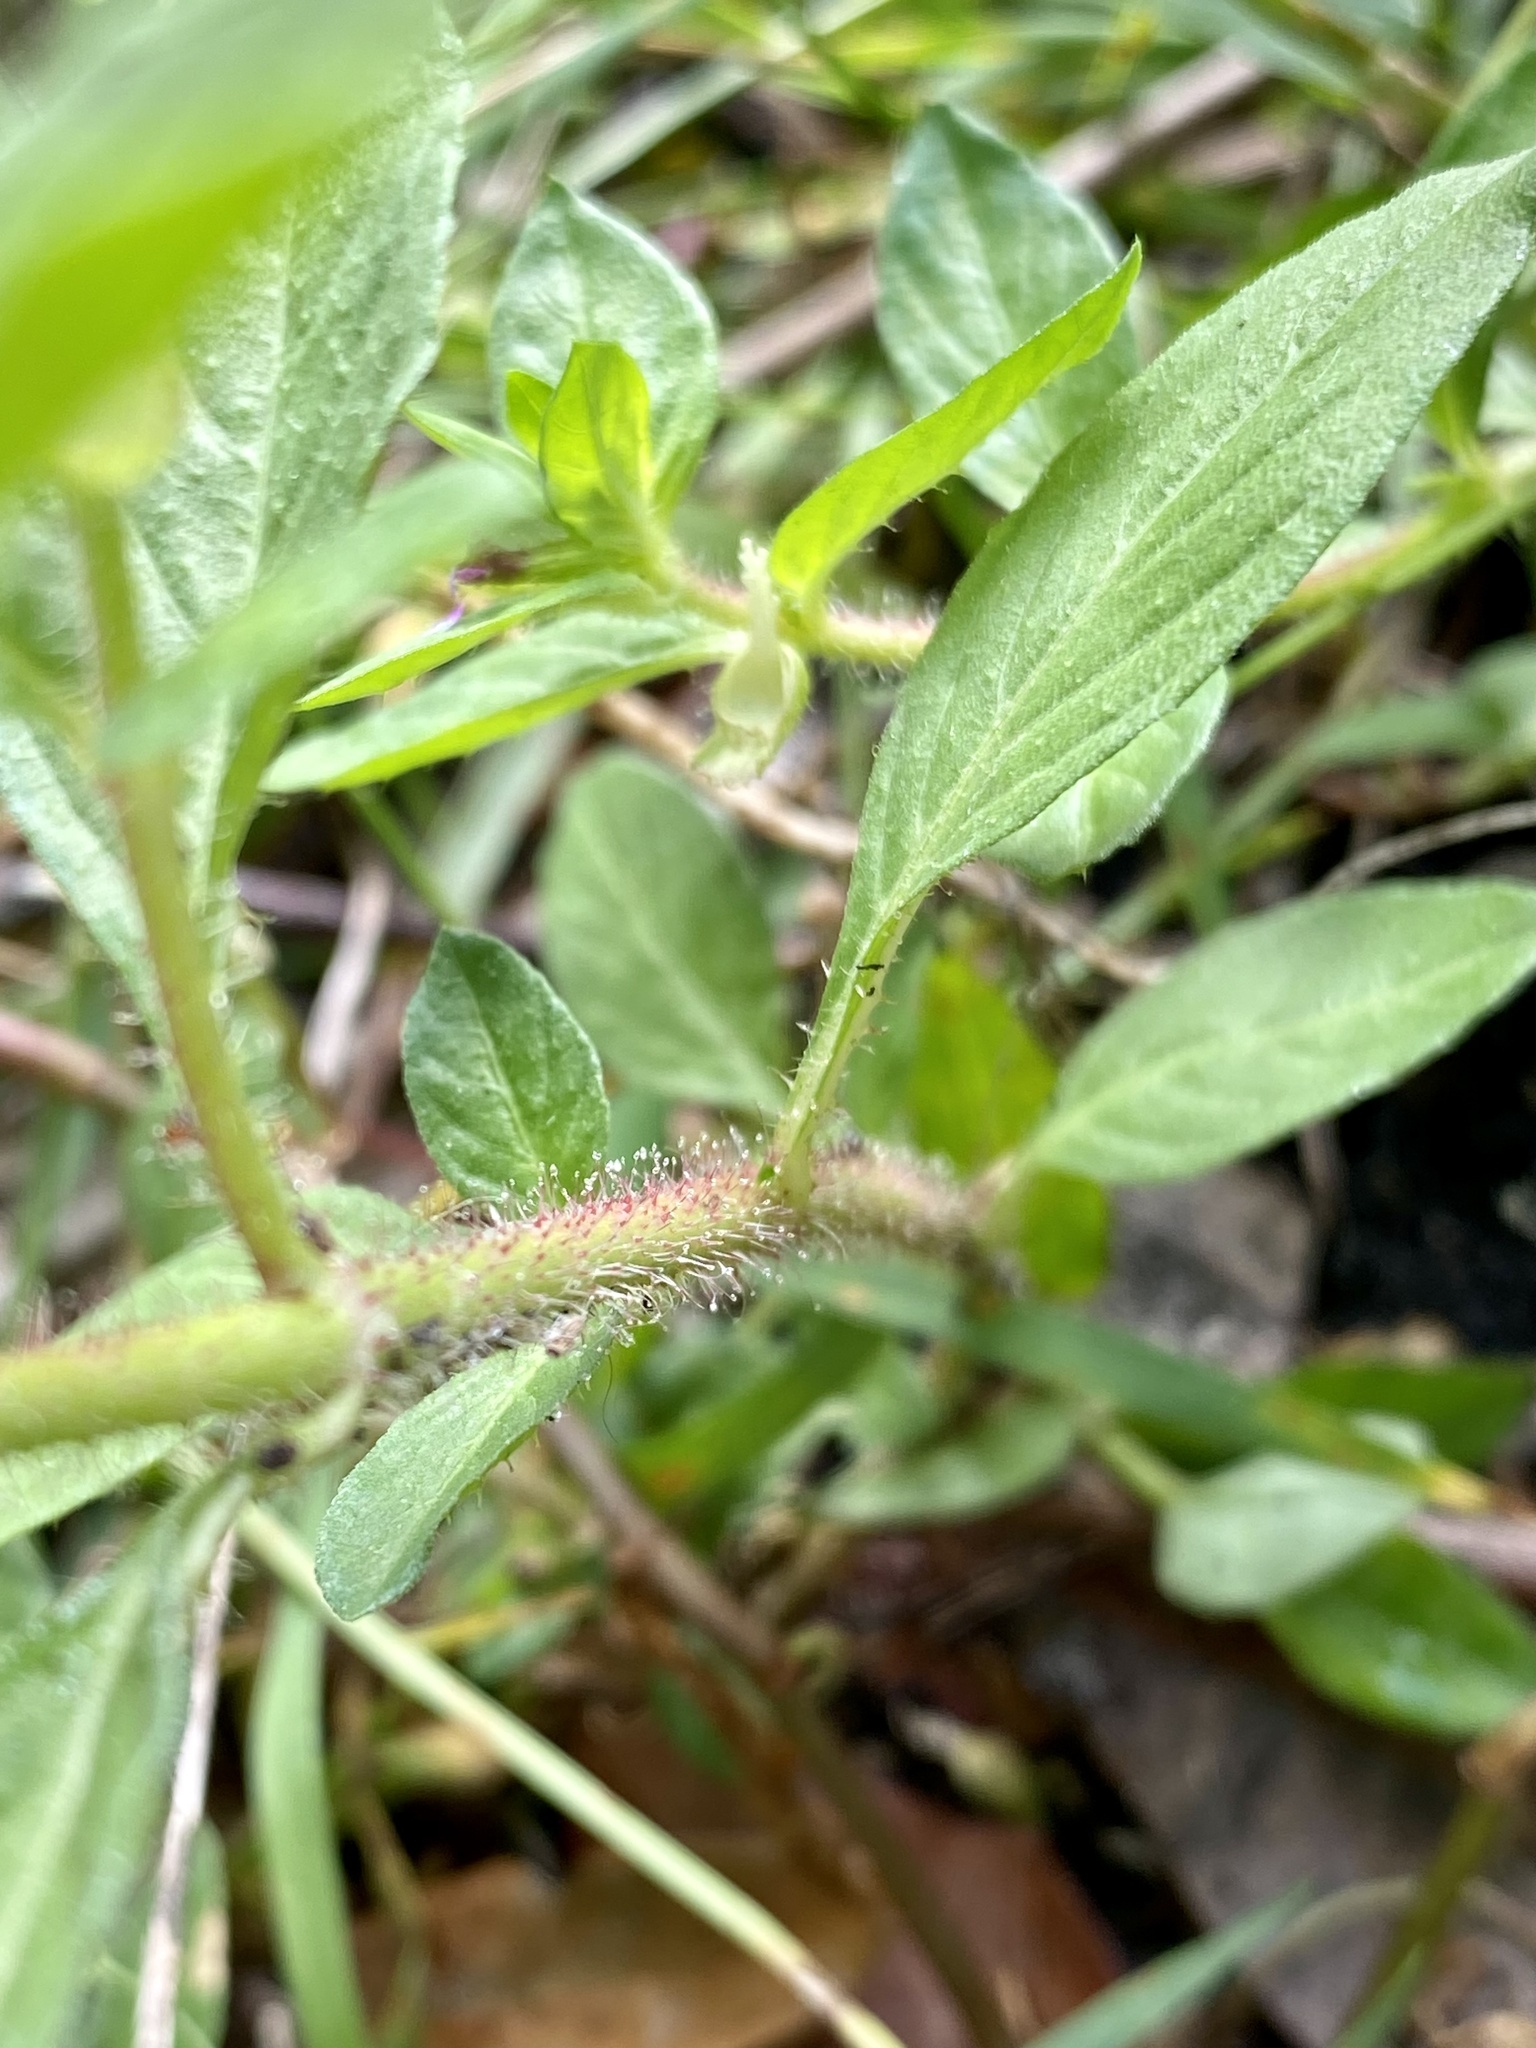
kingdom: Plantae
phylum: Tracheophyta
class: Magnoliopsida
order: Myrtales
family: Lythraceae
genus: Cuphea
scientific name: Cuphea carthagenensis
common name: Colombian waxweed
